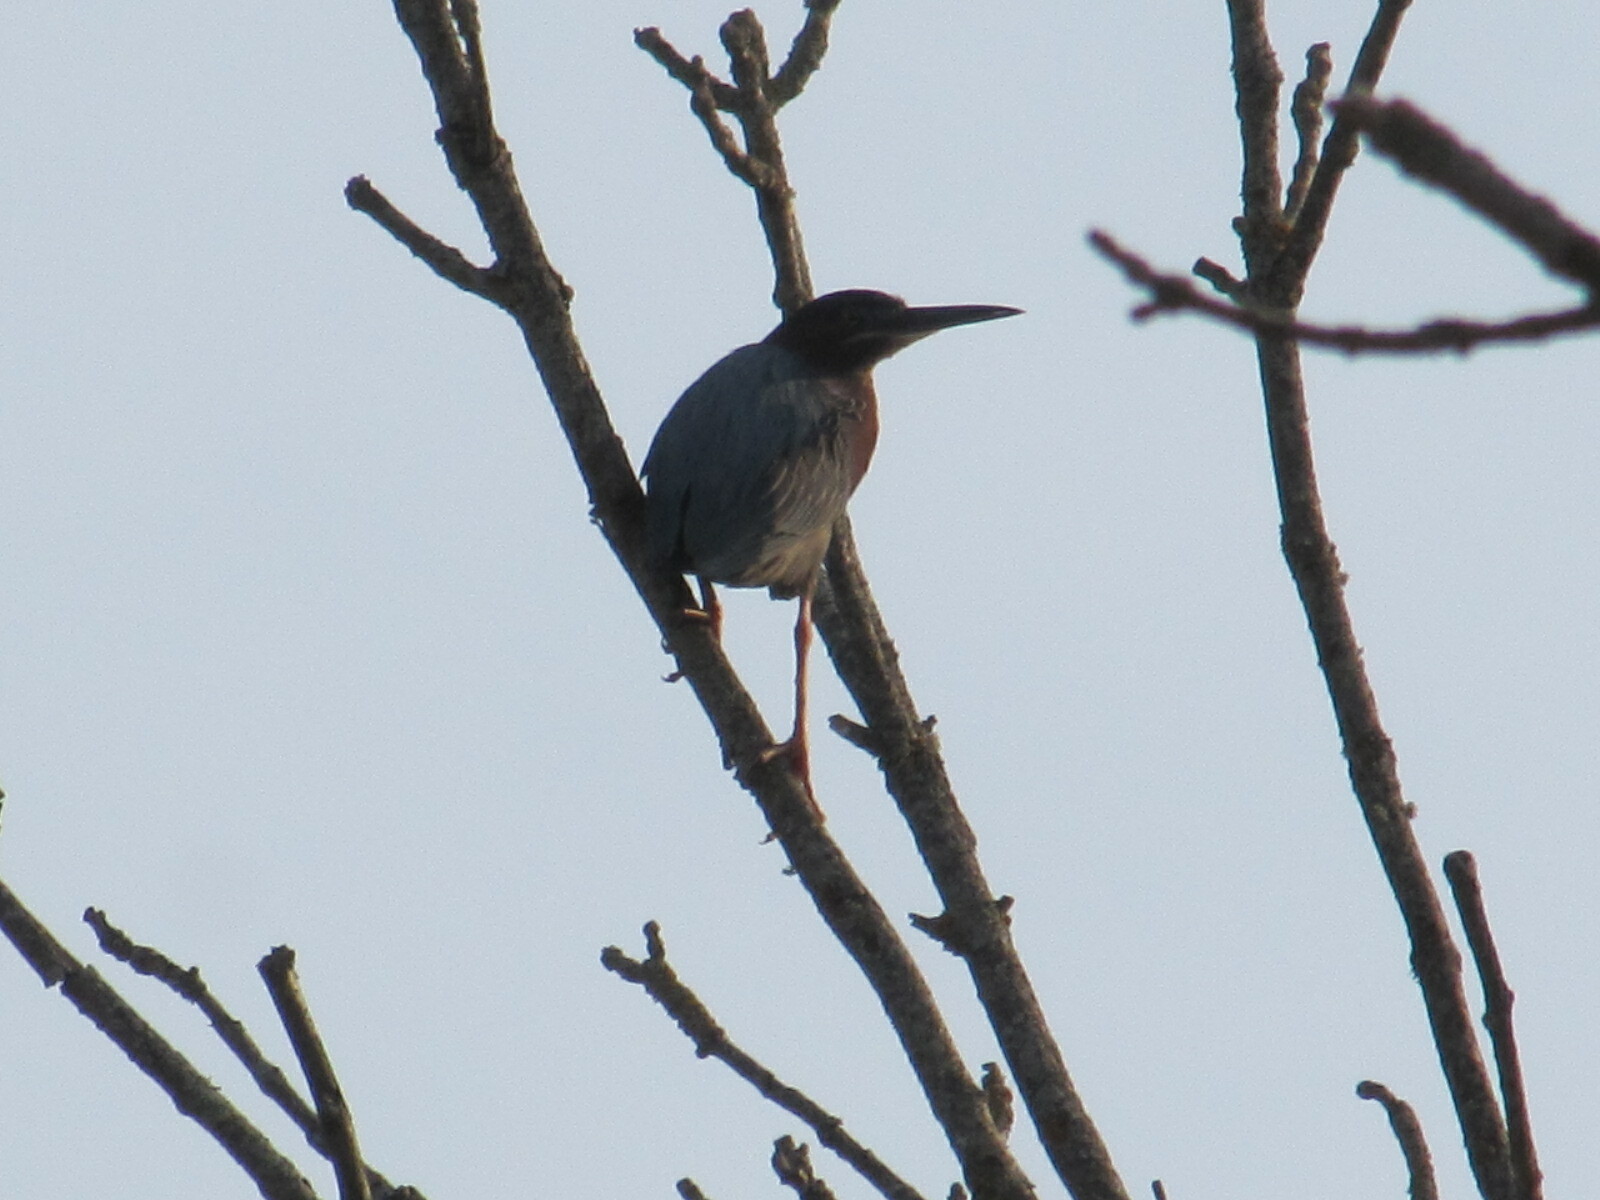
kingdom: Animalia
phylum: Chordata
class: Aves
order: Pelecaniformes
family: Ardeidae
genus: Butorides
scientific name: Butorides virescens
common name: Green heron
